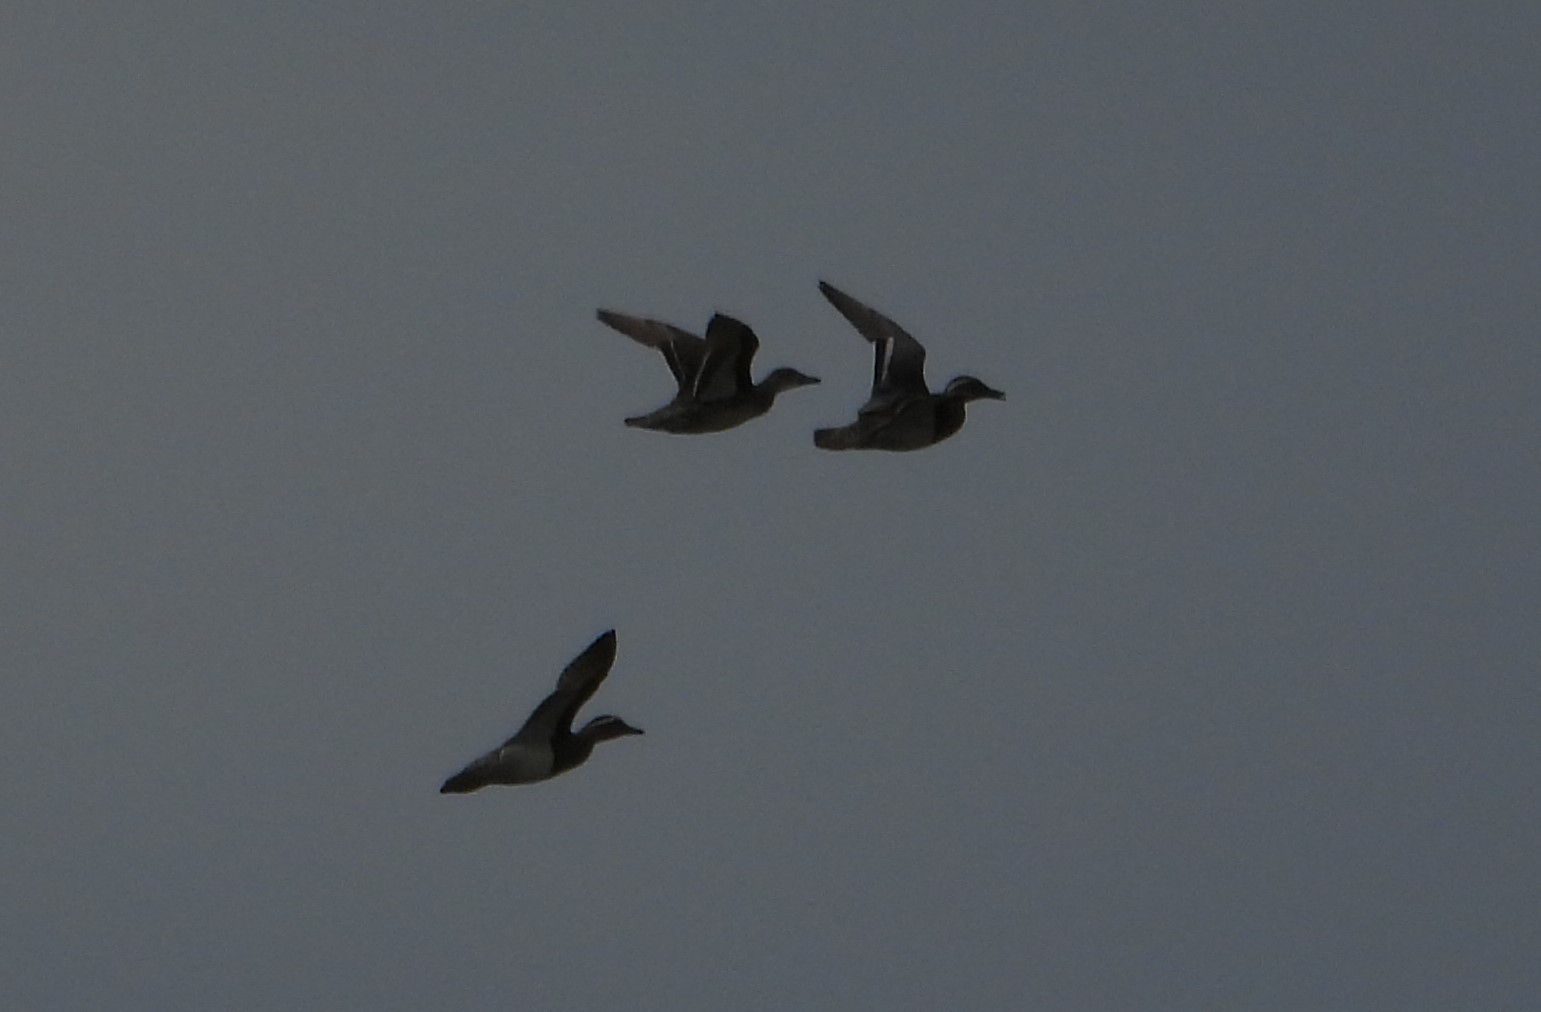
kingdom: Animalia
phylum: Chordata
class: Aves
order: Anseriformes
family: Anatidae
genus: Spatula
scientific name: Spatula querquedula
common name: Garganey
